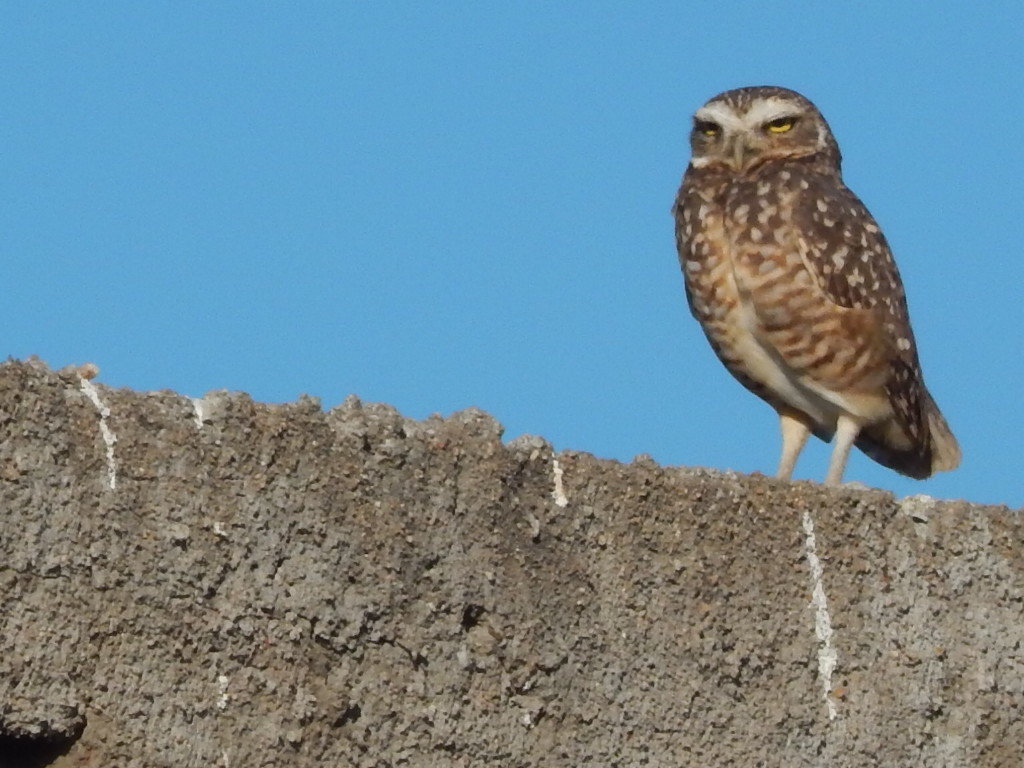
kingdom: Animalia
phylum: Chordata
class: Aves
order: Strigiformes
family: Strigidae
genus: Athene
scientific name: Athene cunicularia
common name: Burrowing owl
